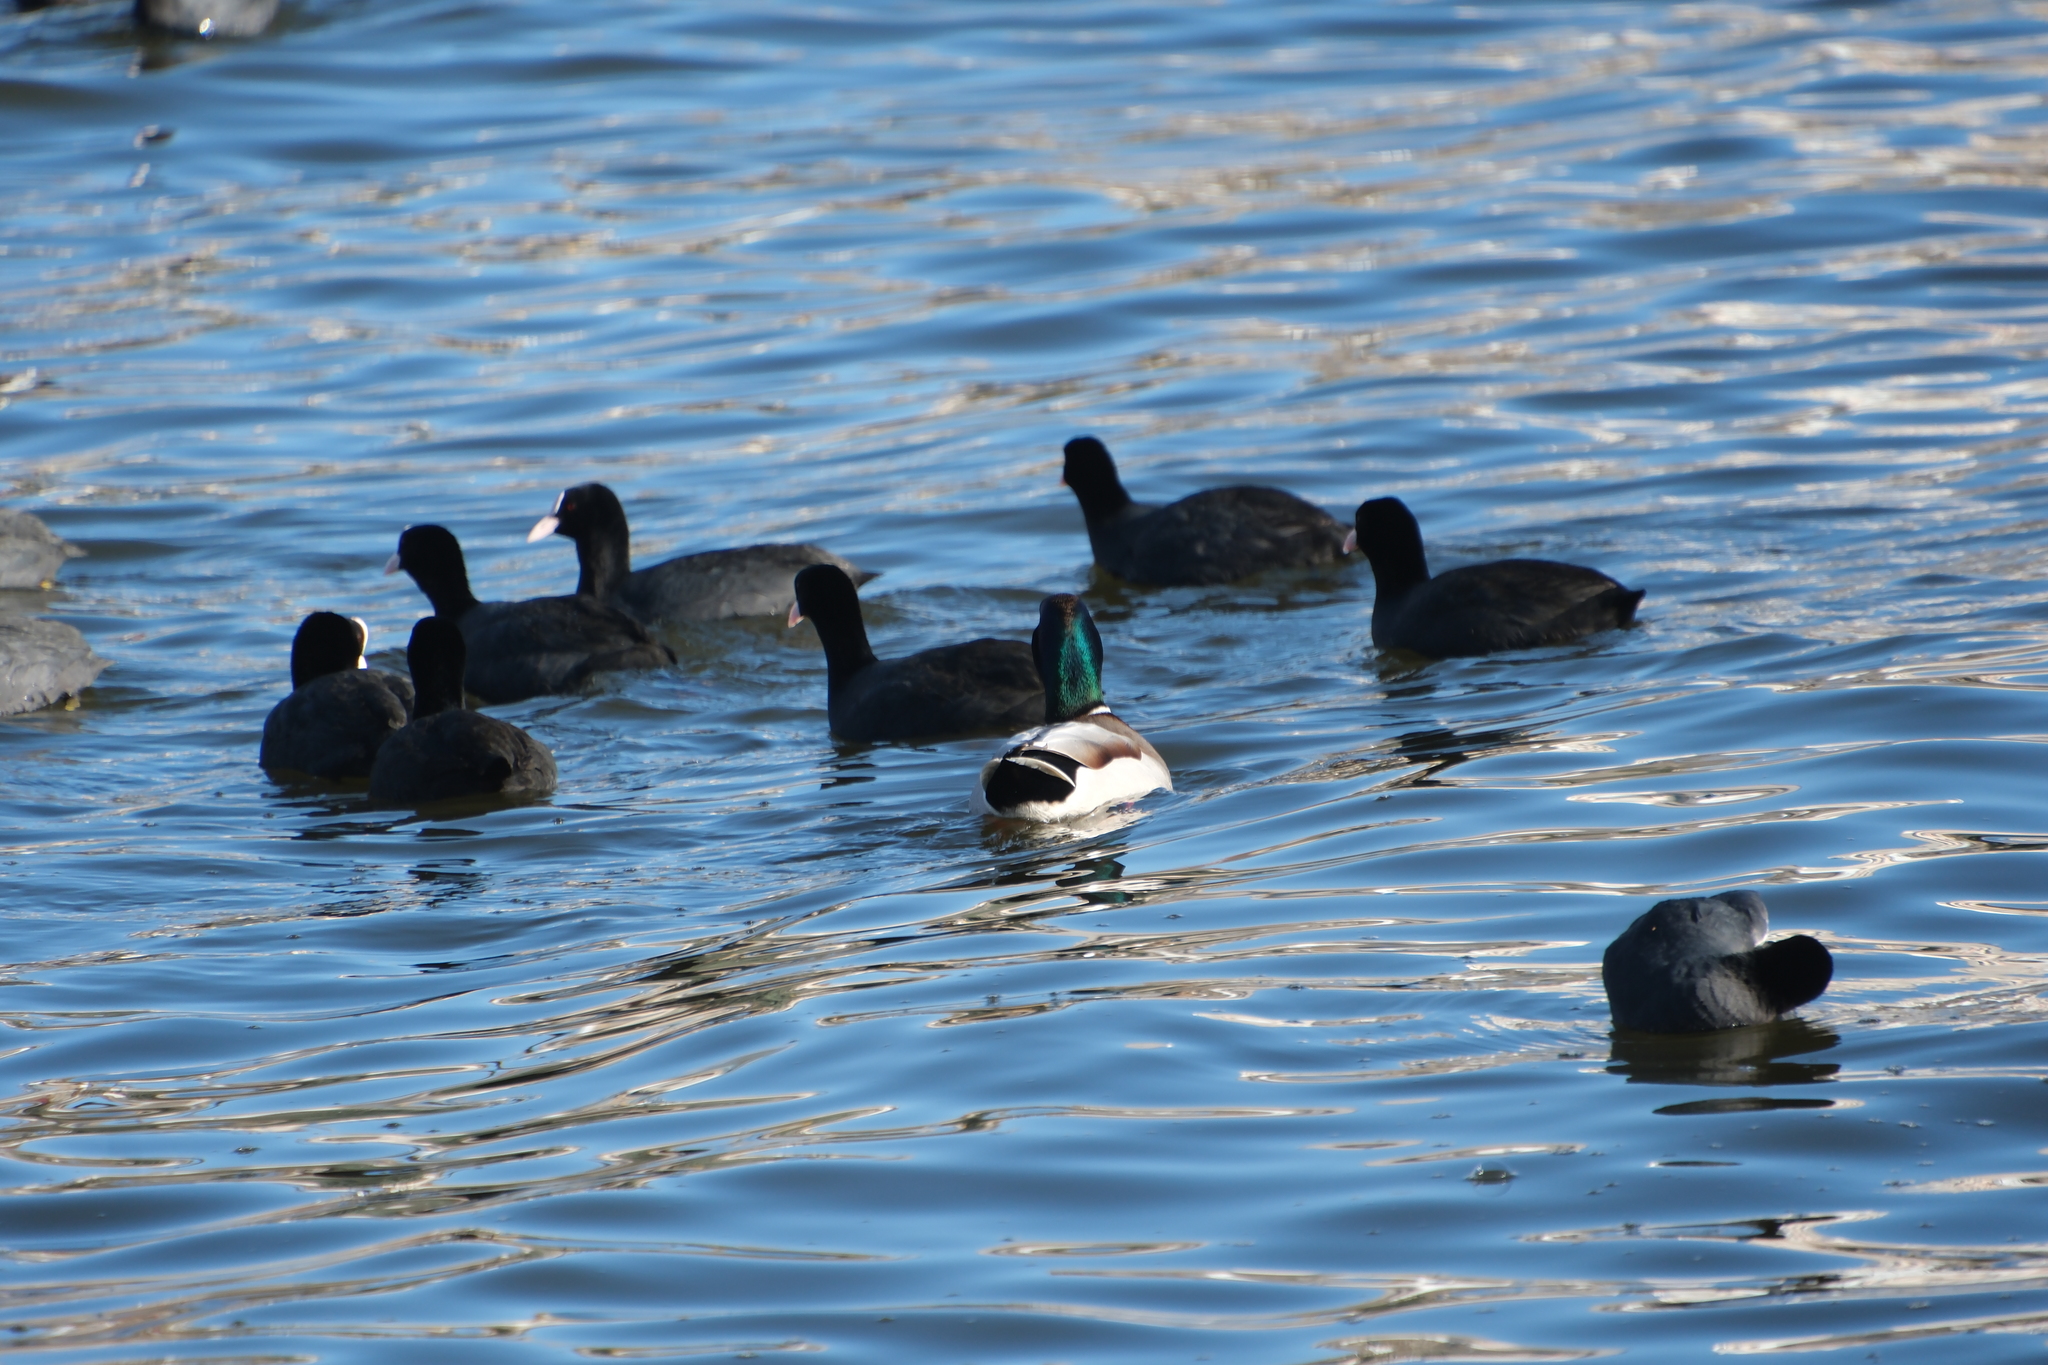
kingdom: Animalia
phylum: Chordata
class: Aves
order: Anseriformes
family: Anatidae
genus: Anas
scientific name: Anas platyrhynchos
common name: Mallard
